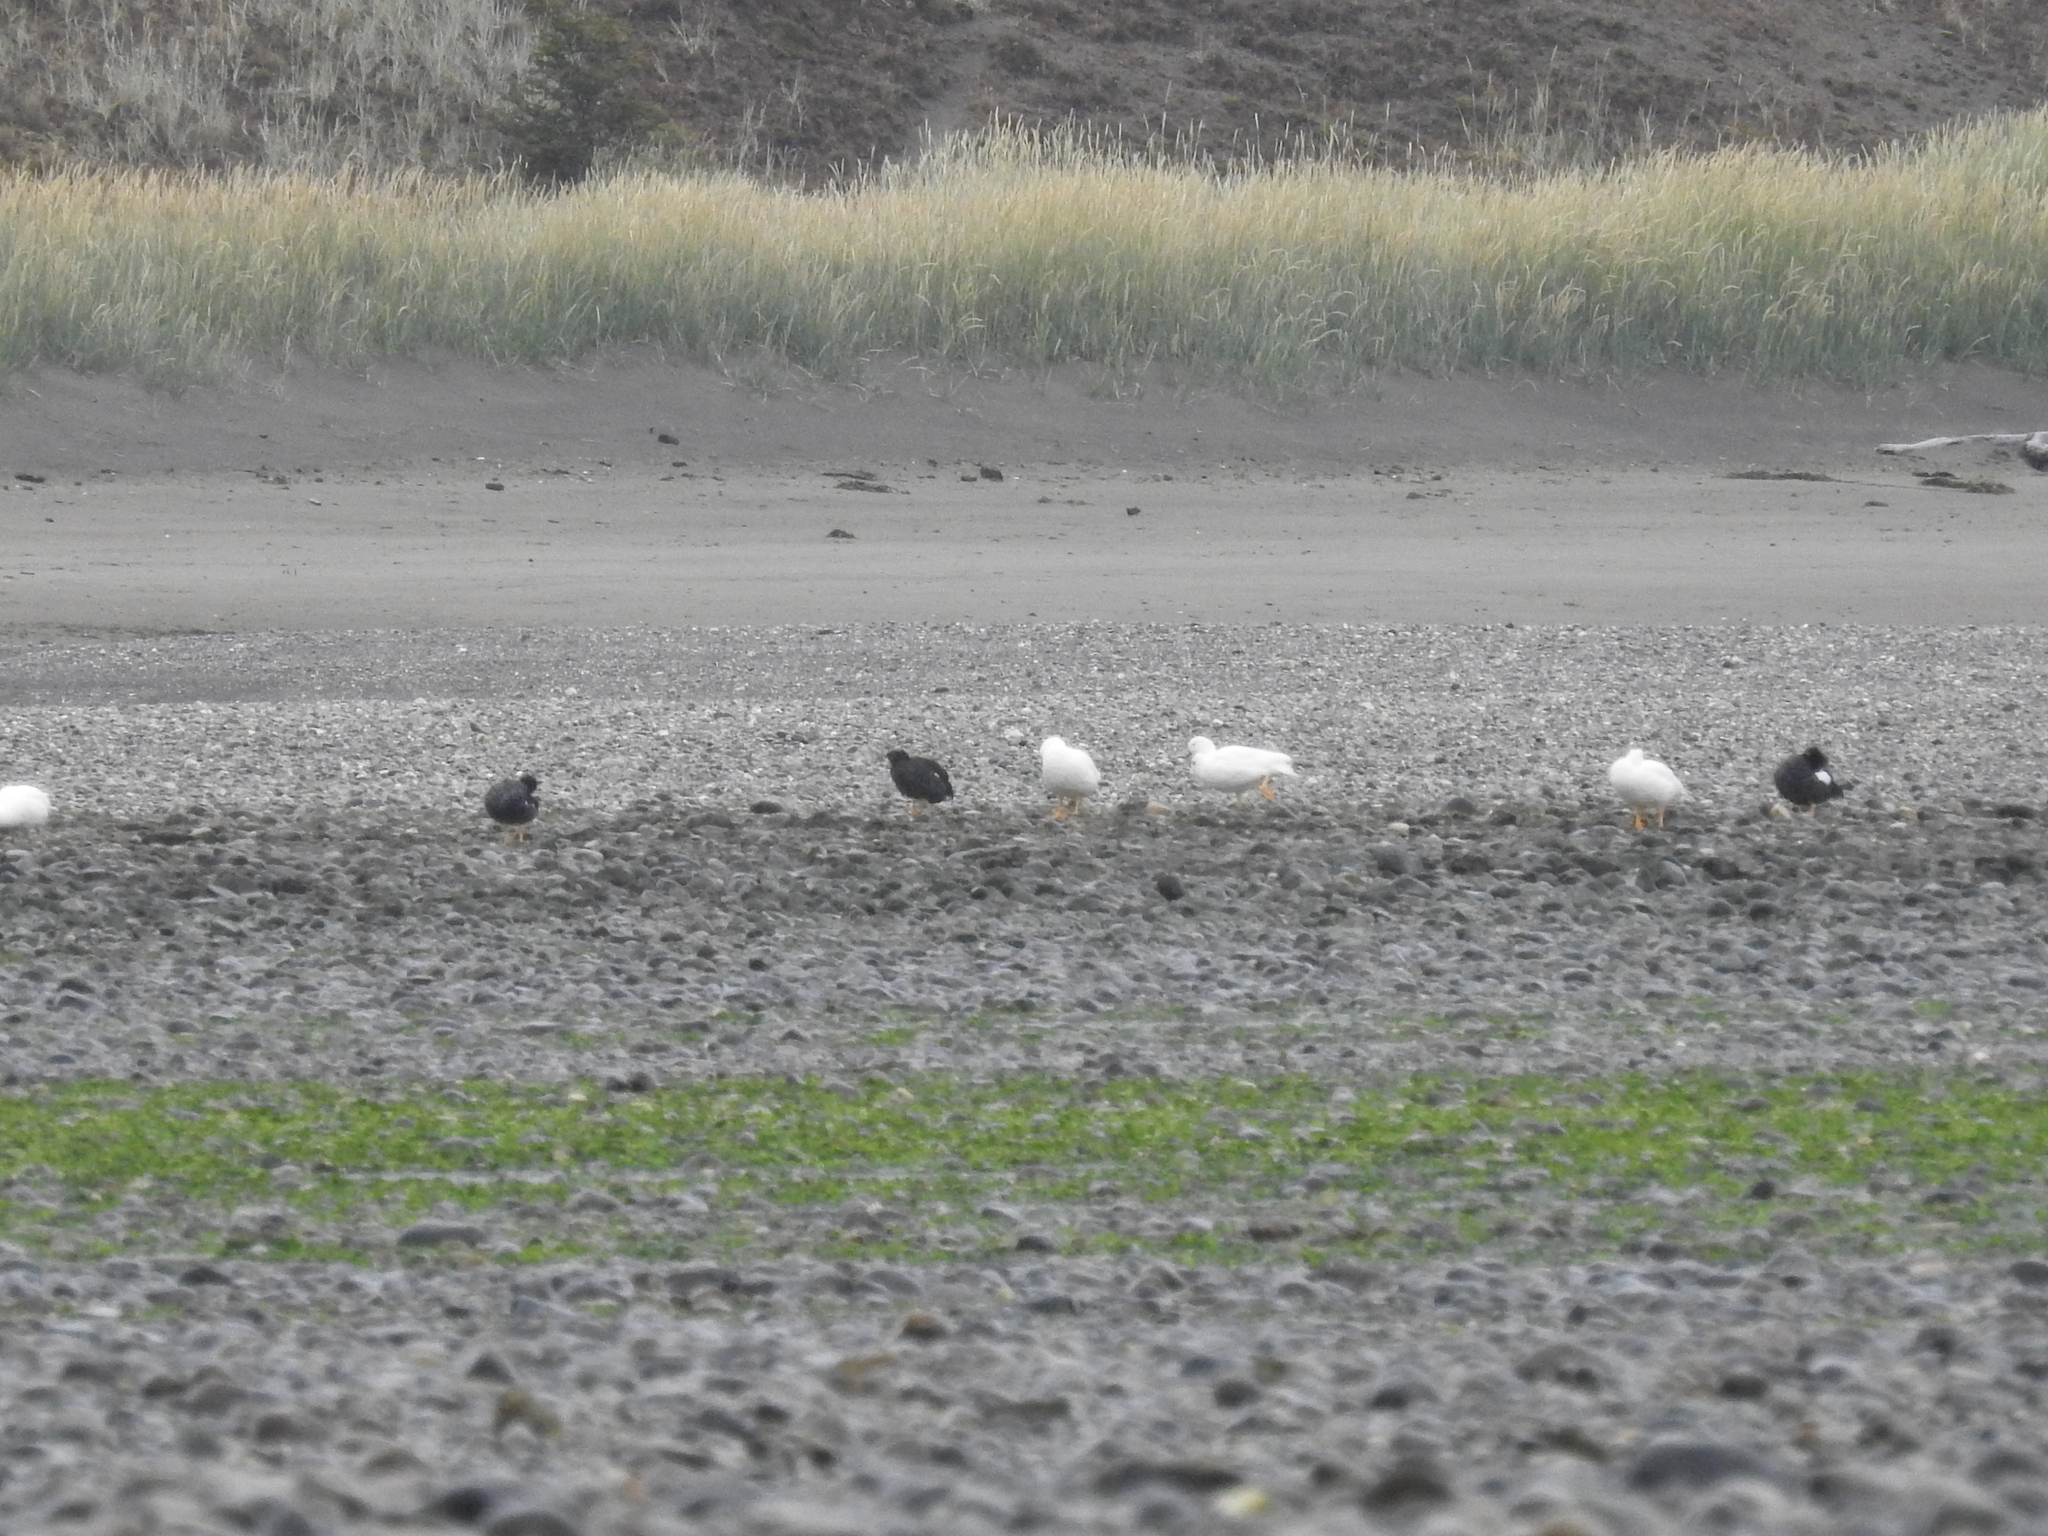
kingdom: Animalia
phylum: Chordata
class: Aves
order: Anseriformes
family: Anatidae
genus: Chloephaga
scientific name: Chloephaga hybrida
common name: Kelp goose
